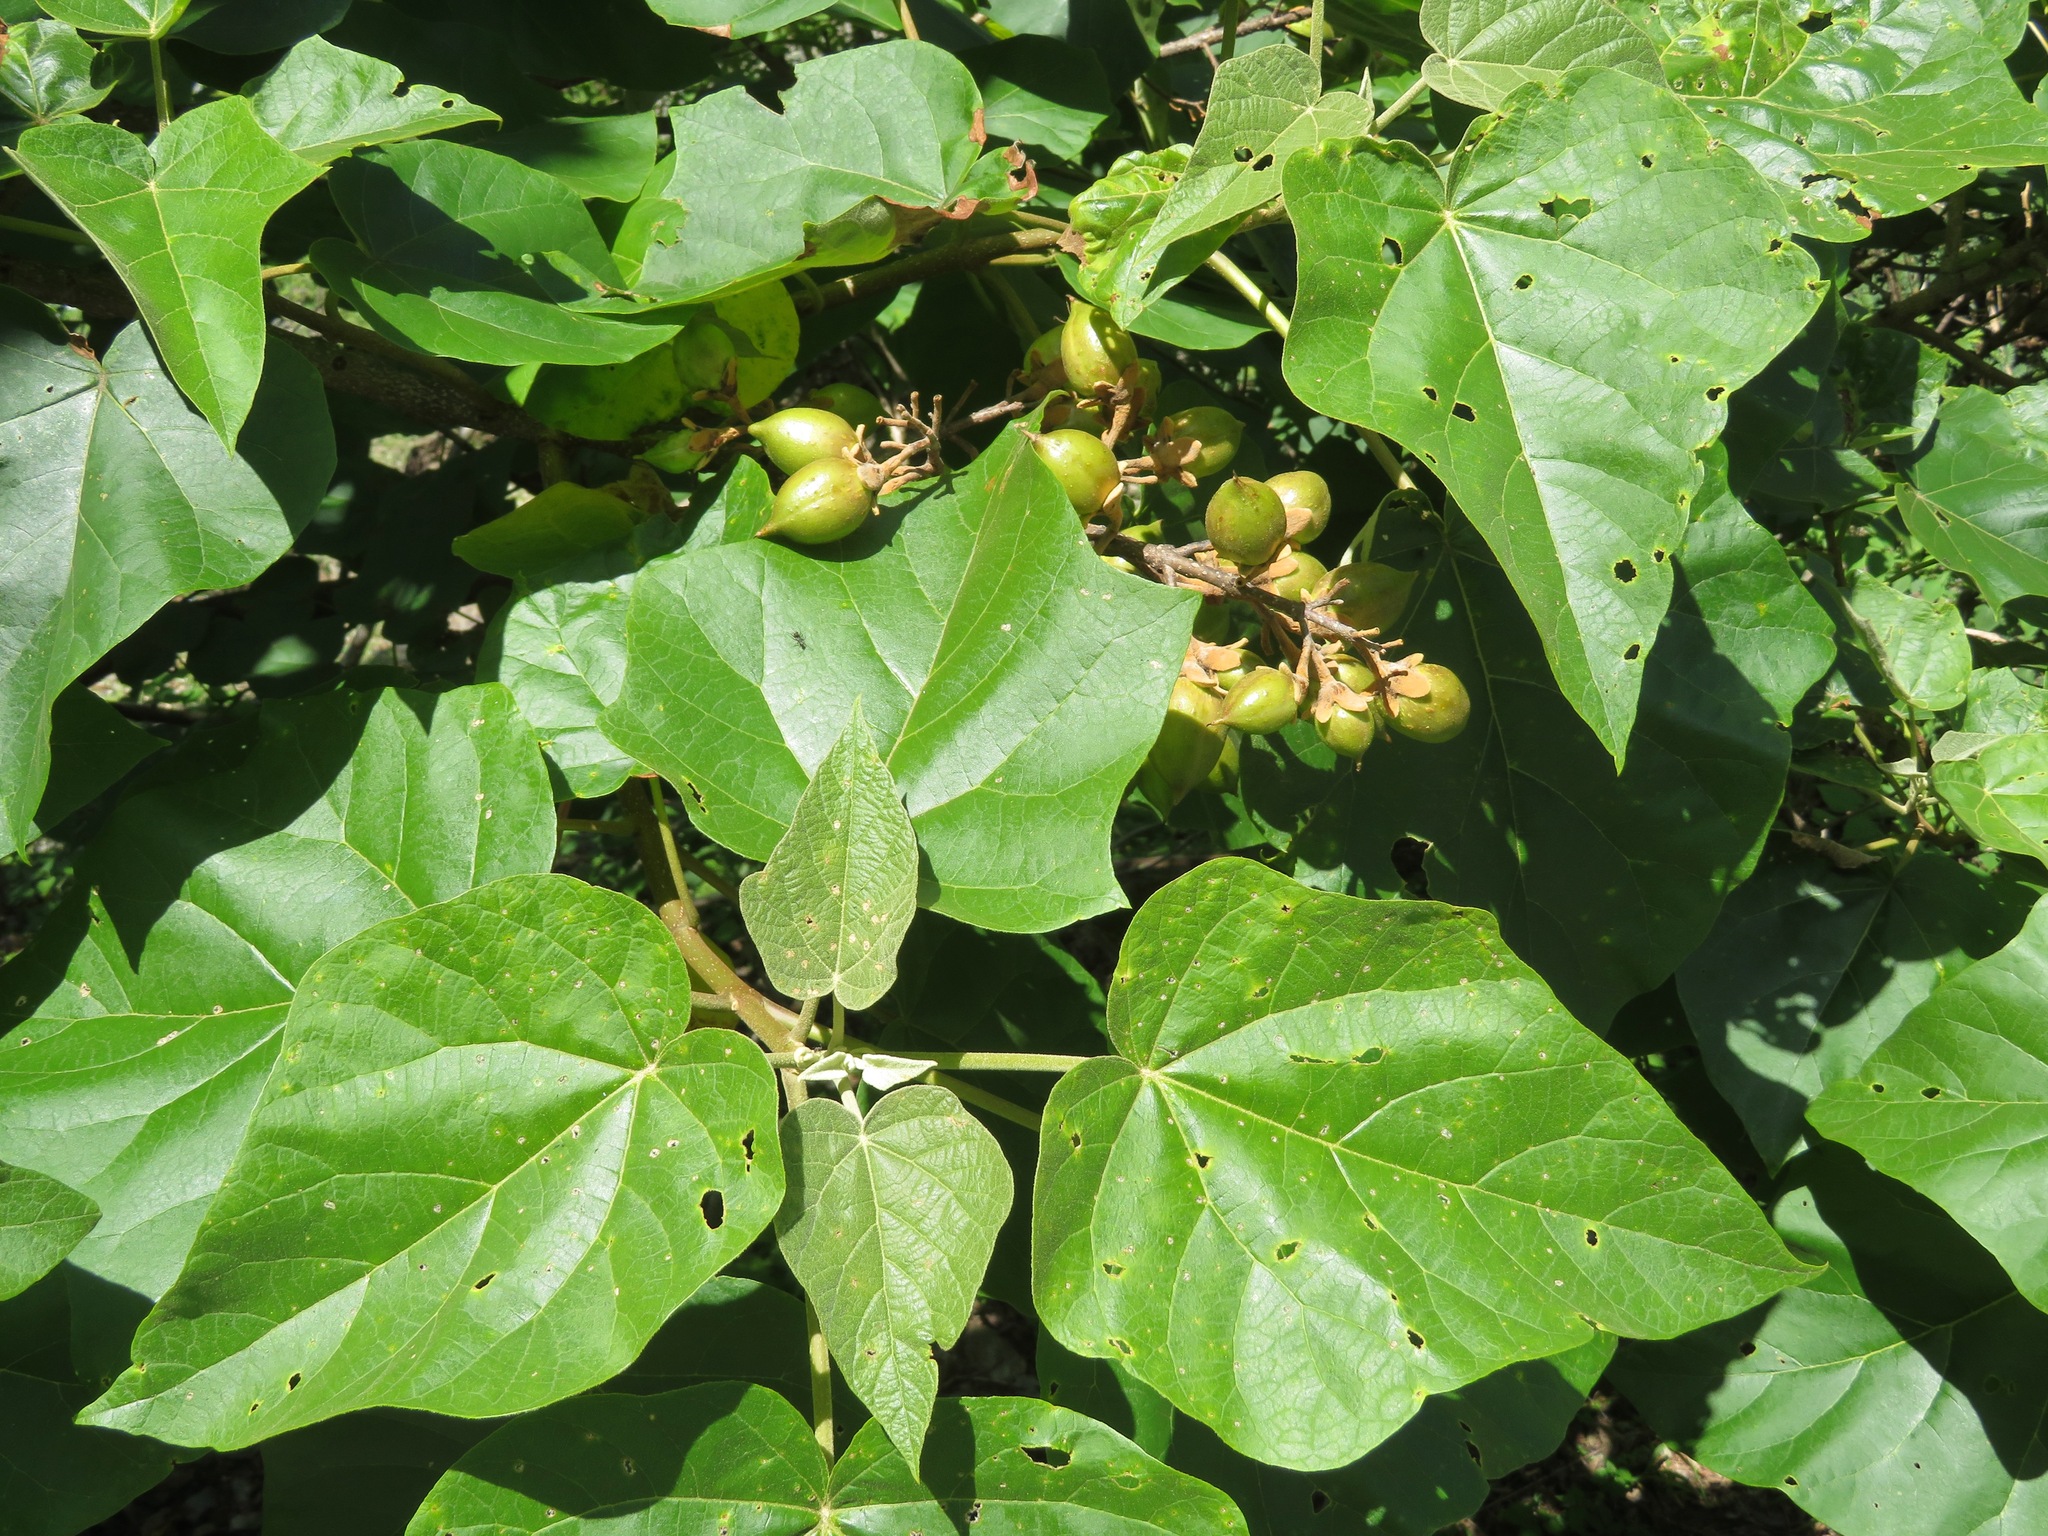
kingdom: Plantae
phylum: Tracheophyta
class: Magnoliopsida
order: Lamiales
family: Paulowniaceae
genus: Paulownia
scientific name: Paulownia tomentosa
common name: Foxglove-tree
